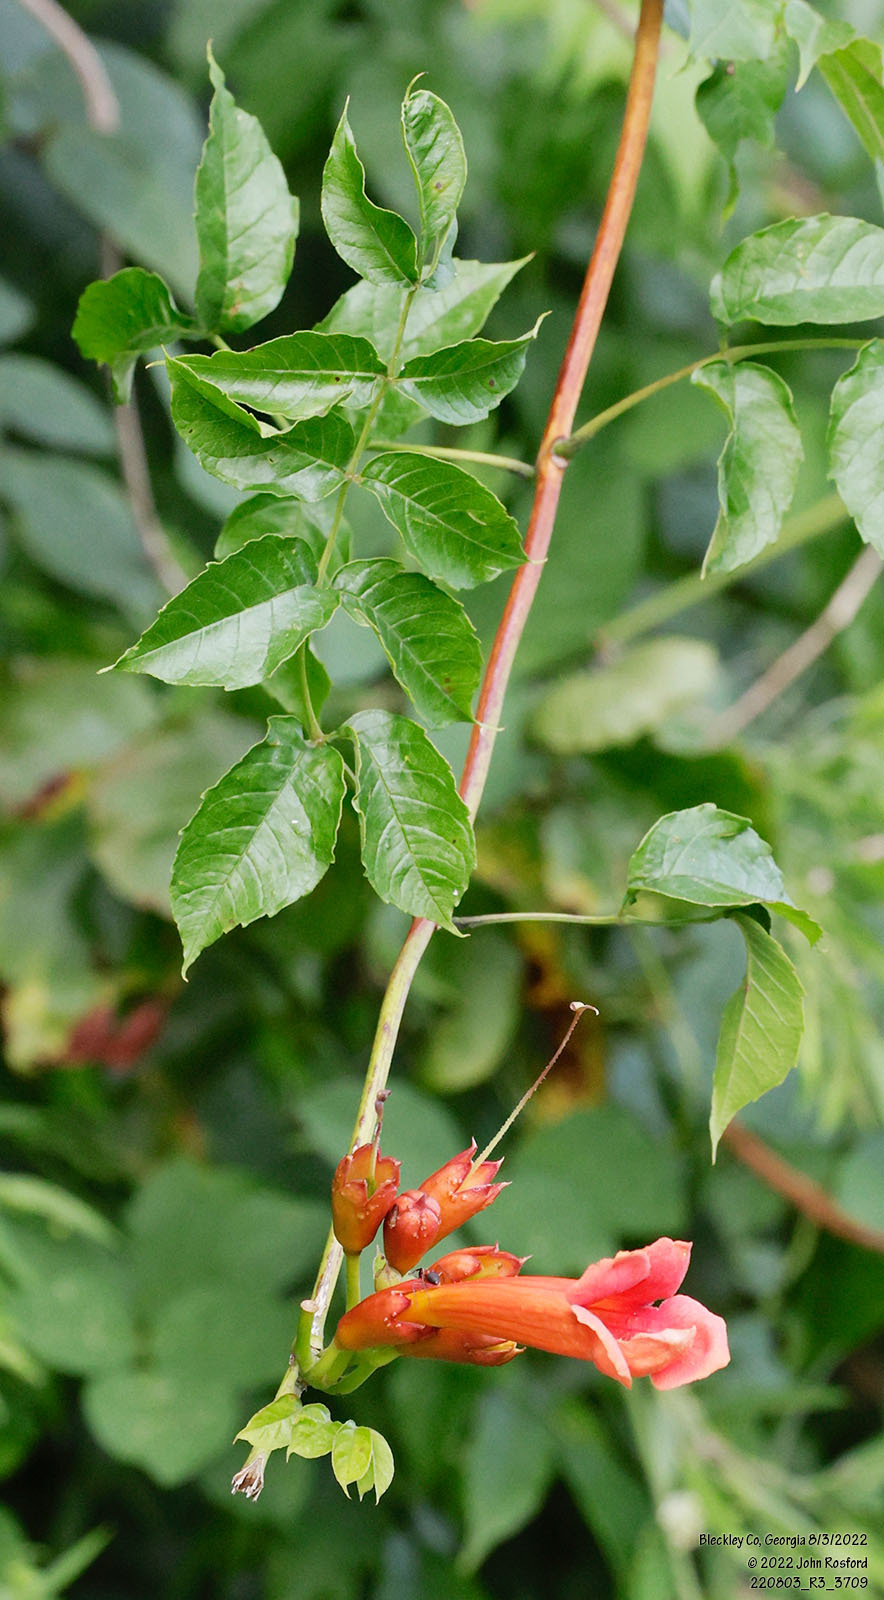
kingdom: Plantae
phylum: Tracheophyta
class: Magnoliopsida
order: Lamiales
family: Bignoniaceae
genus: Campsis
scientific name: Campsis radicans
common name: Trumpet-creeper
